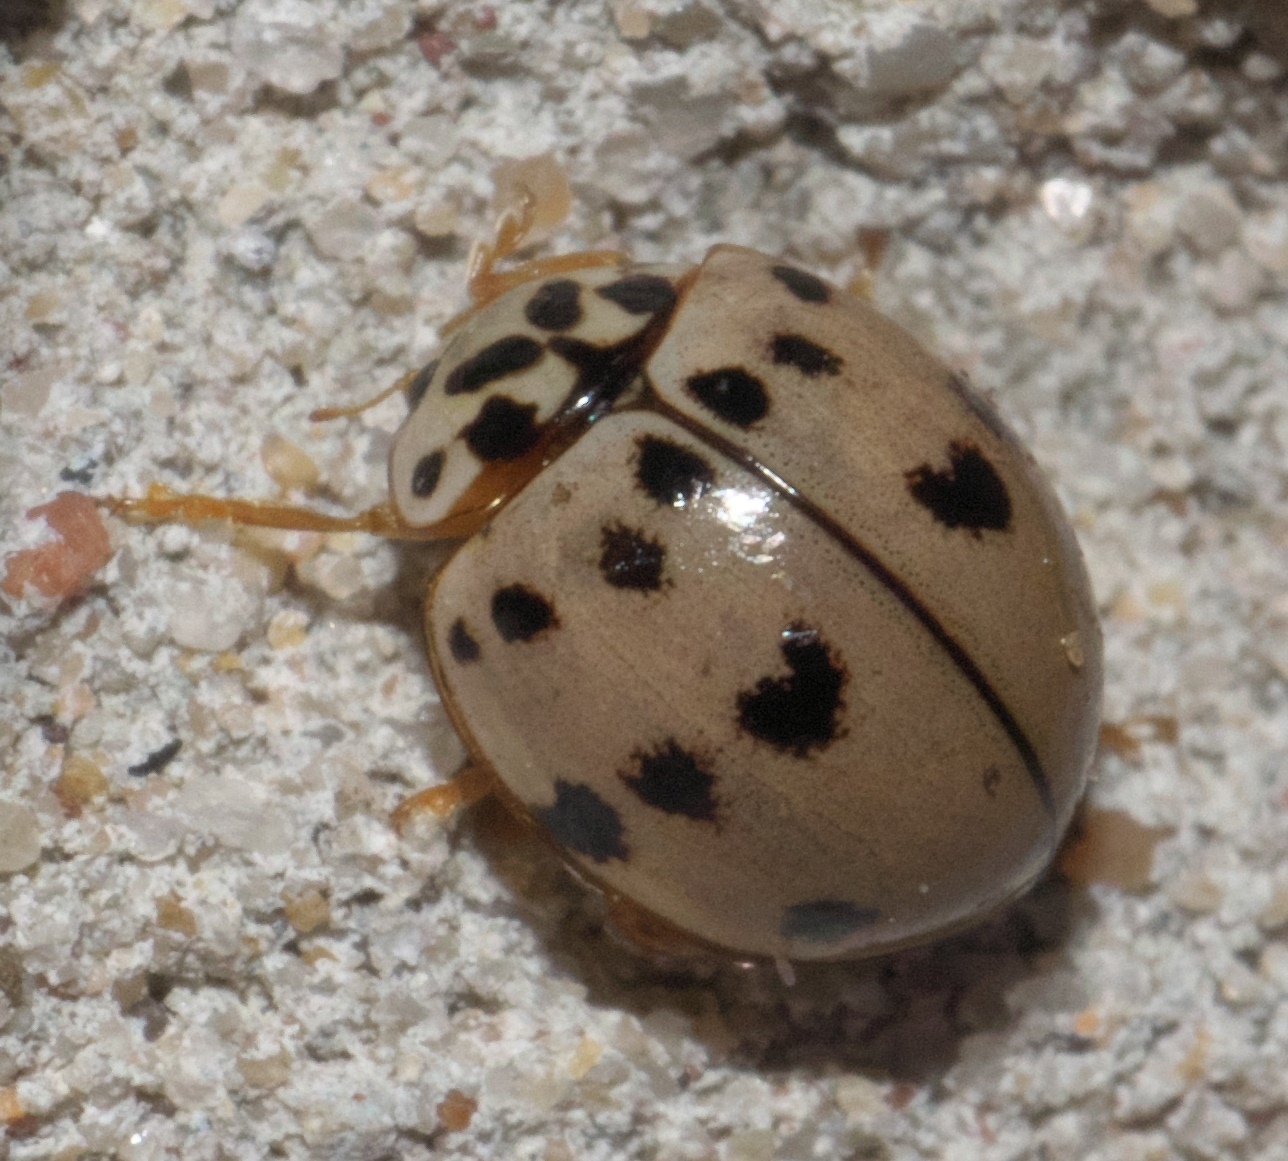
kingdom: Animalia
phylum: Arthropoda
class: Insecta
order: Coleoptera
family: Coccinellidae
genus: Olla
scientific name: Olla v-nigrum
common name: Ashy gray lady beetle
